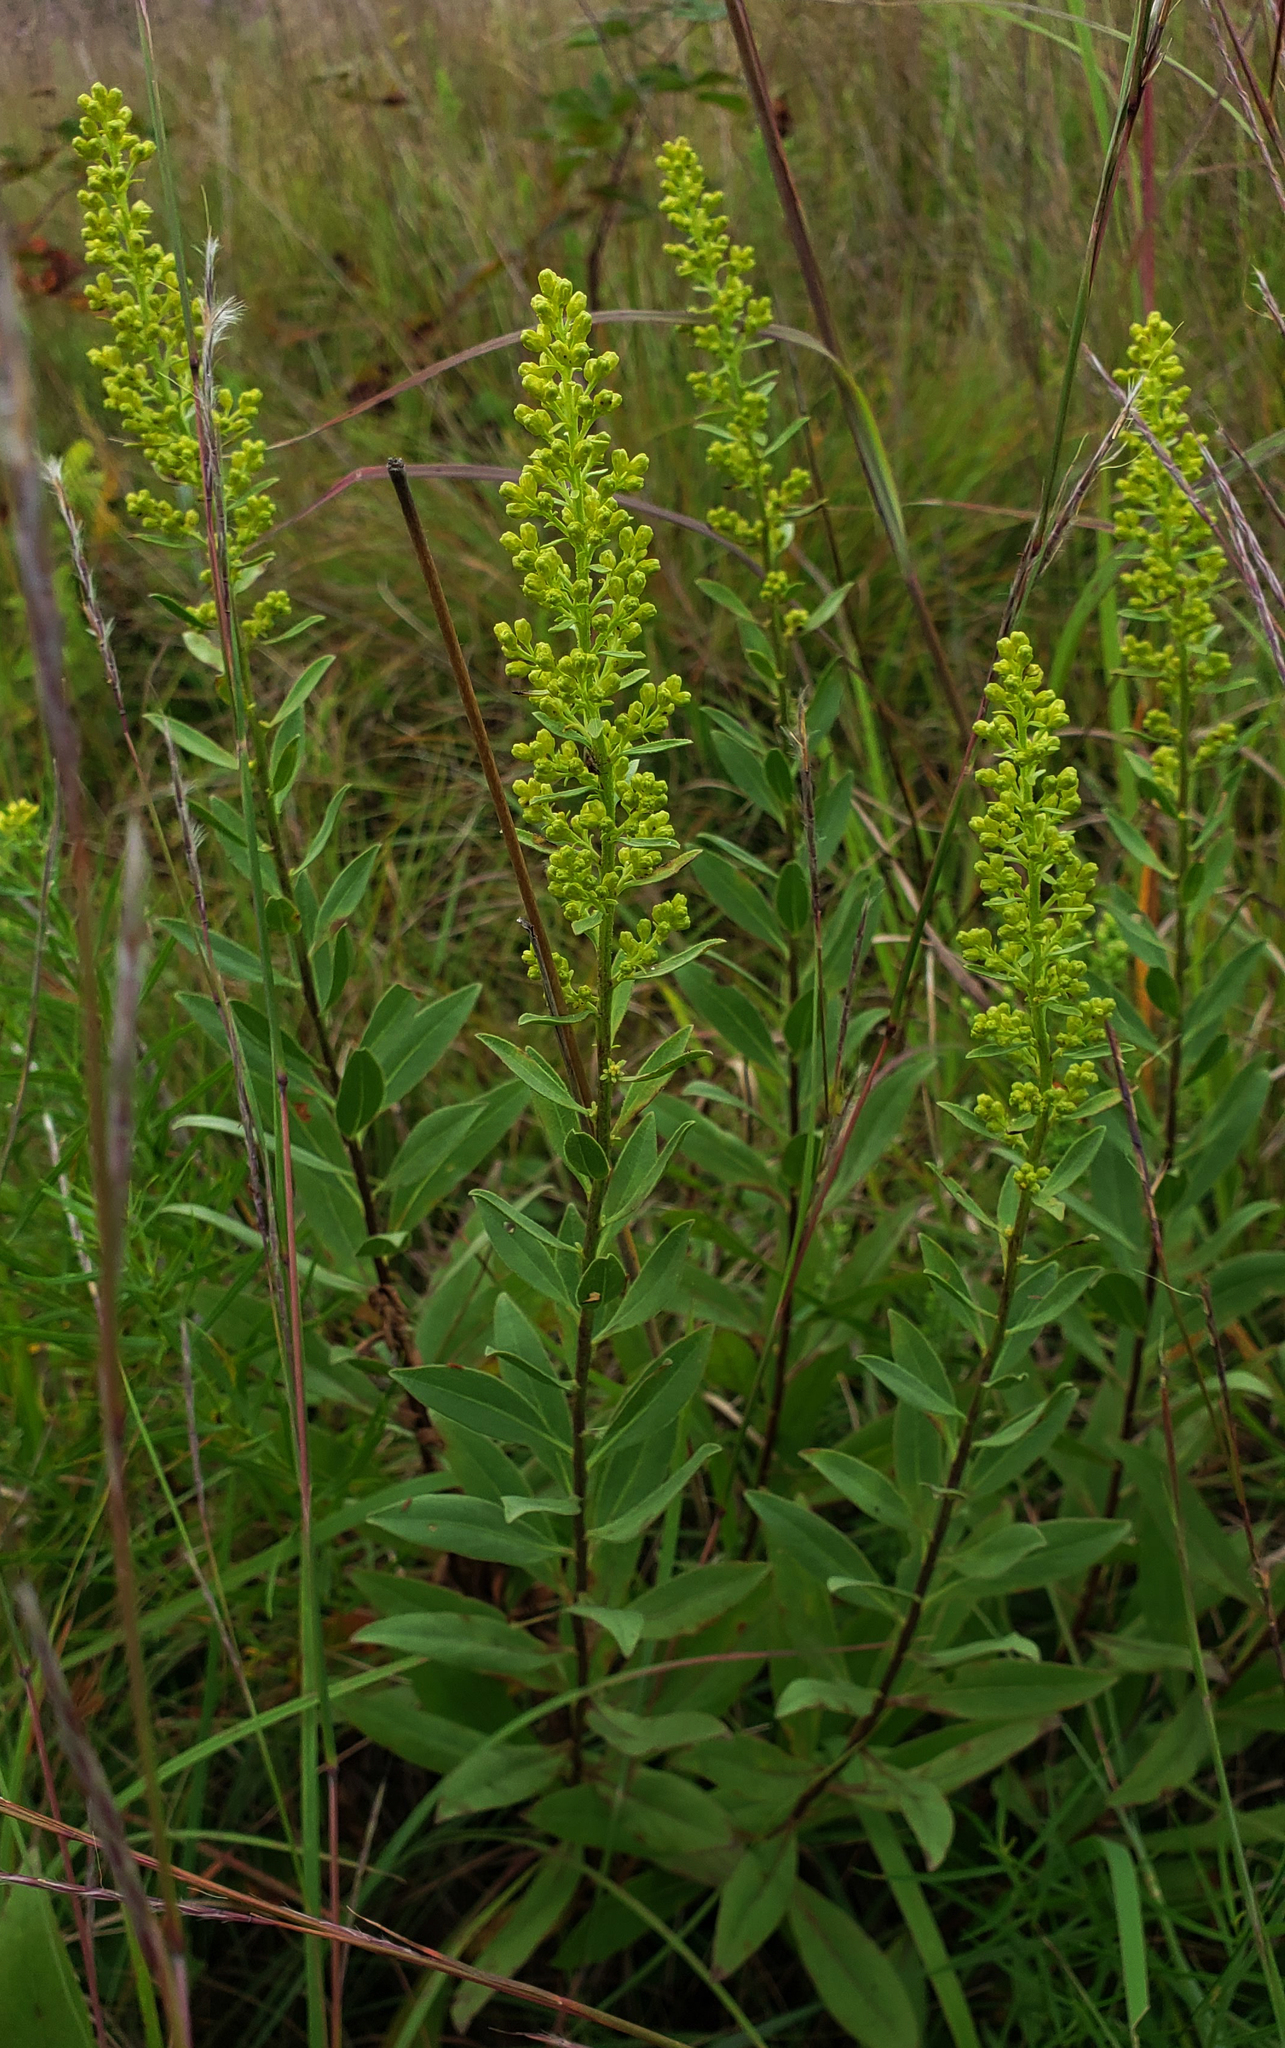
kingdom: Plantae
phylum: Tracheophyta
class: Magnoliopsida
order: Asterales
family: Asteraceae
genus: Solidago
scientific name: Solidago rigidiuscula
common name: Stiff-leaved showy goldenrod
